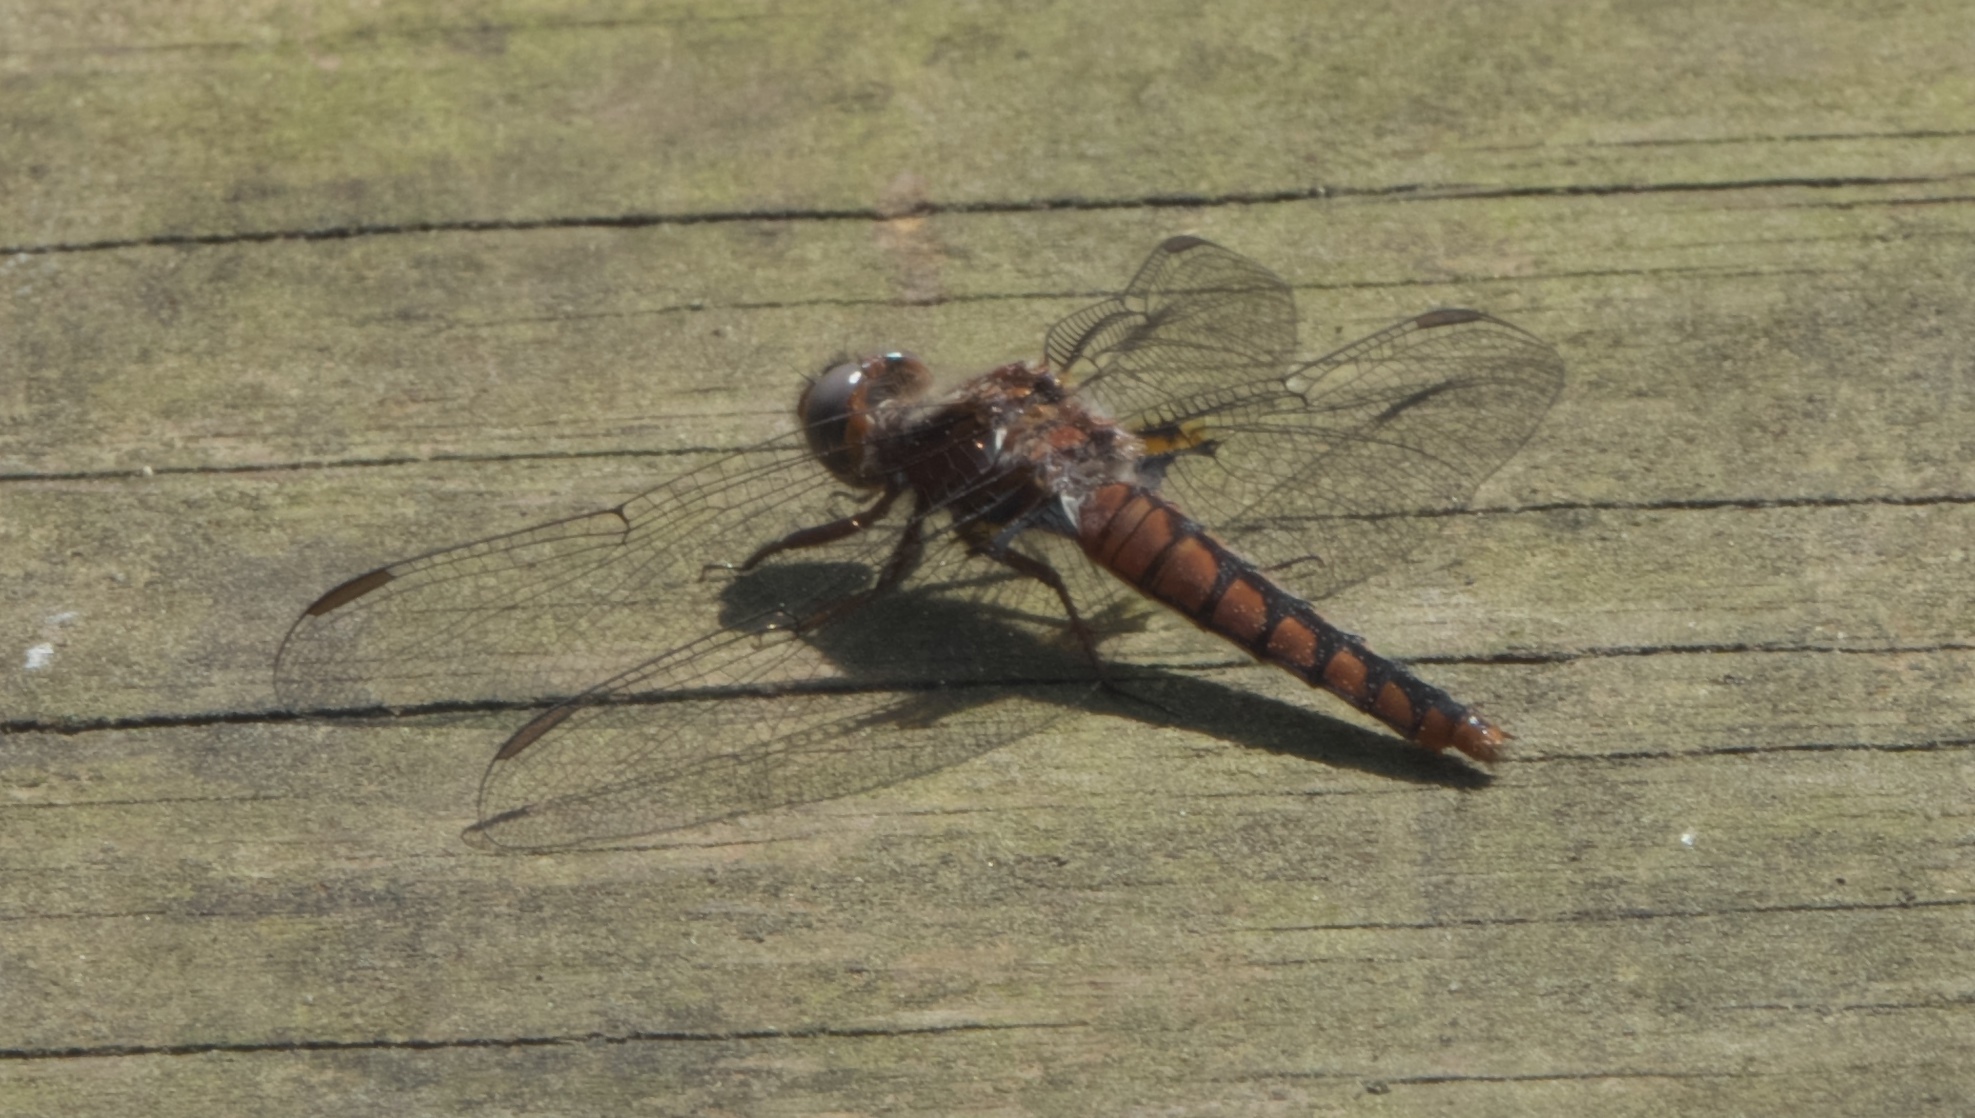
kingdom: Animalia
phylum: Arthropoda
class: Insecta
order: Odonata
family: Libellulidae
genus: Ladona
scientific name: Ladona deplanata
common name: Blue corporal
